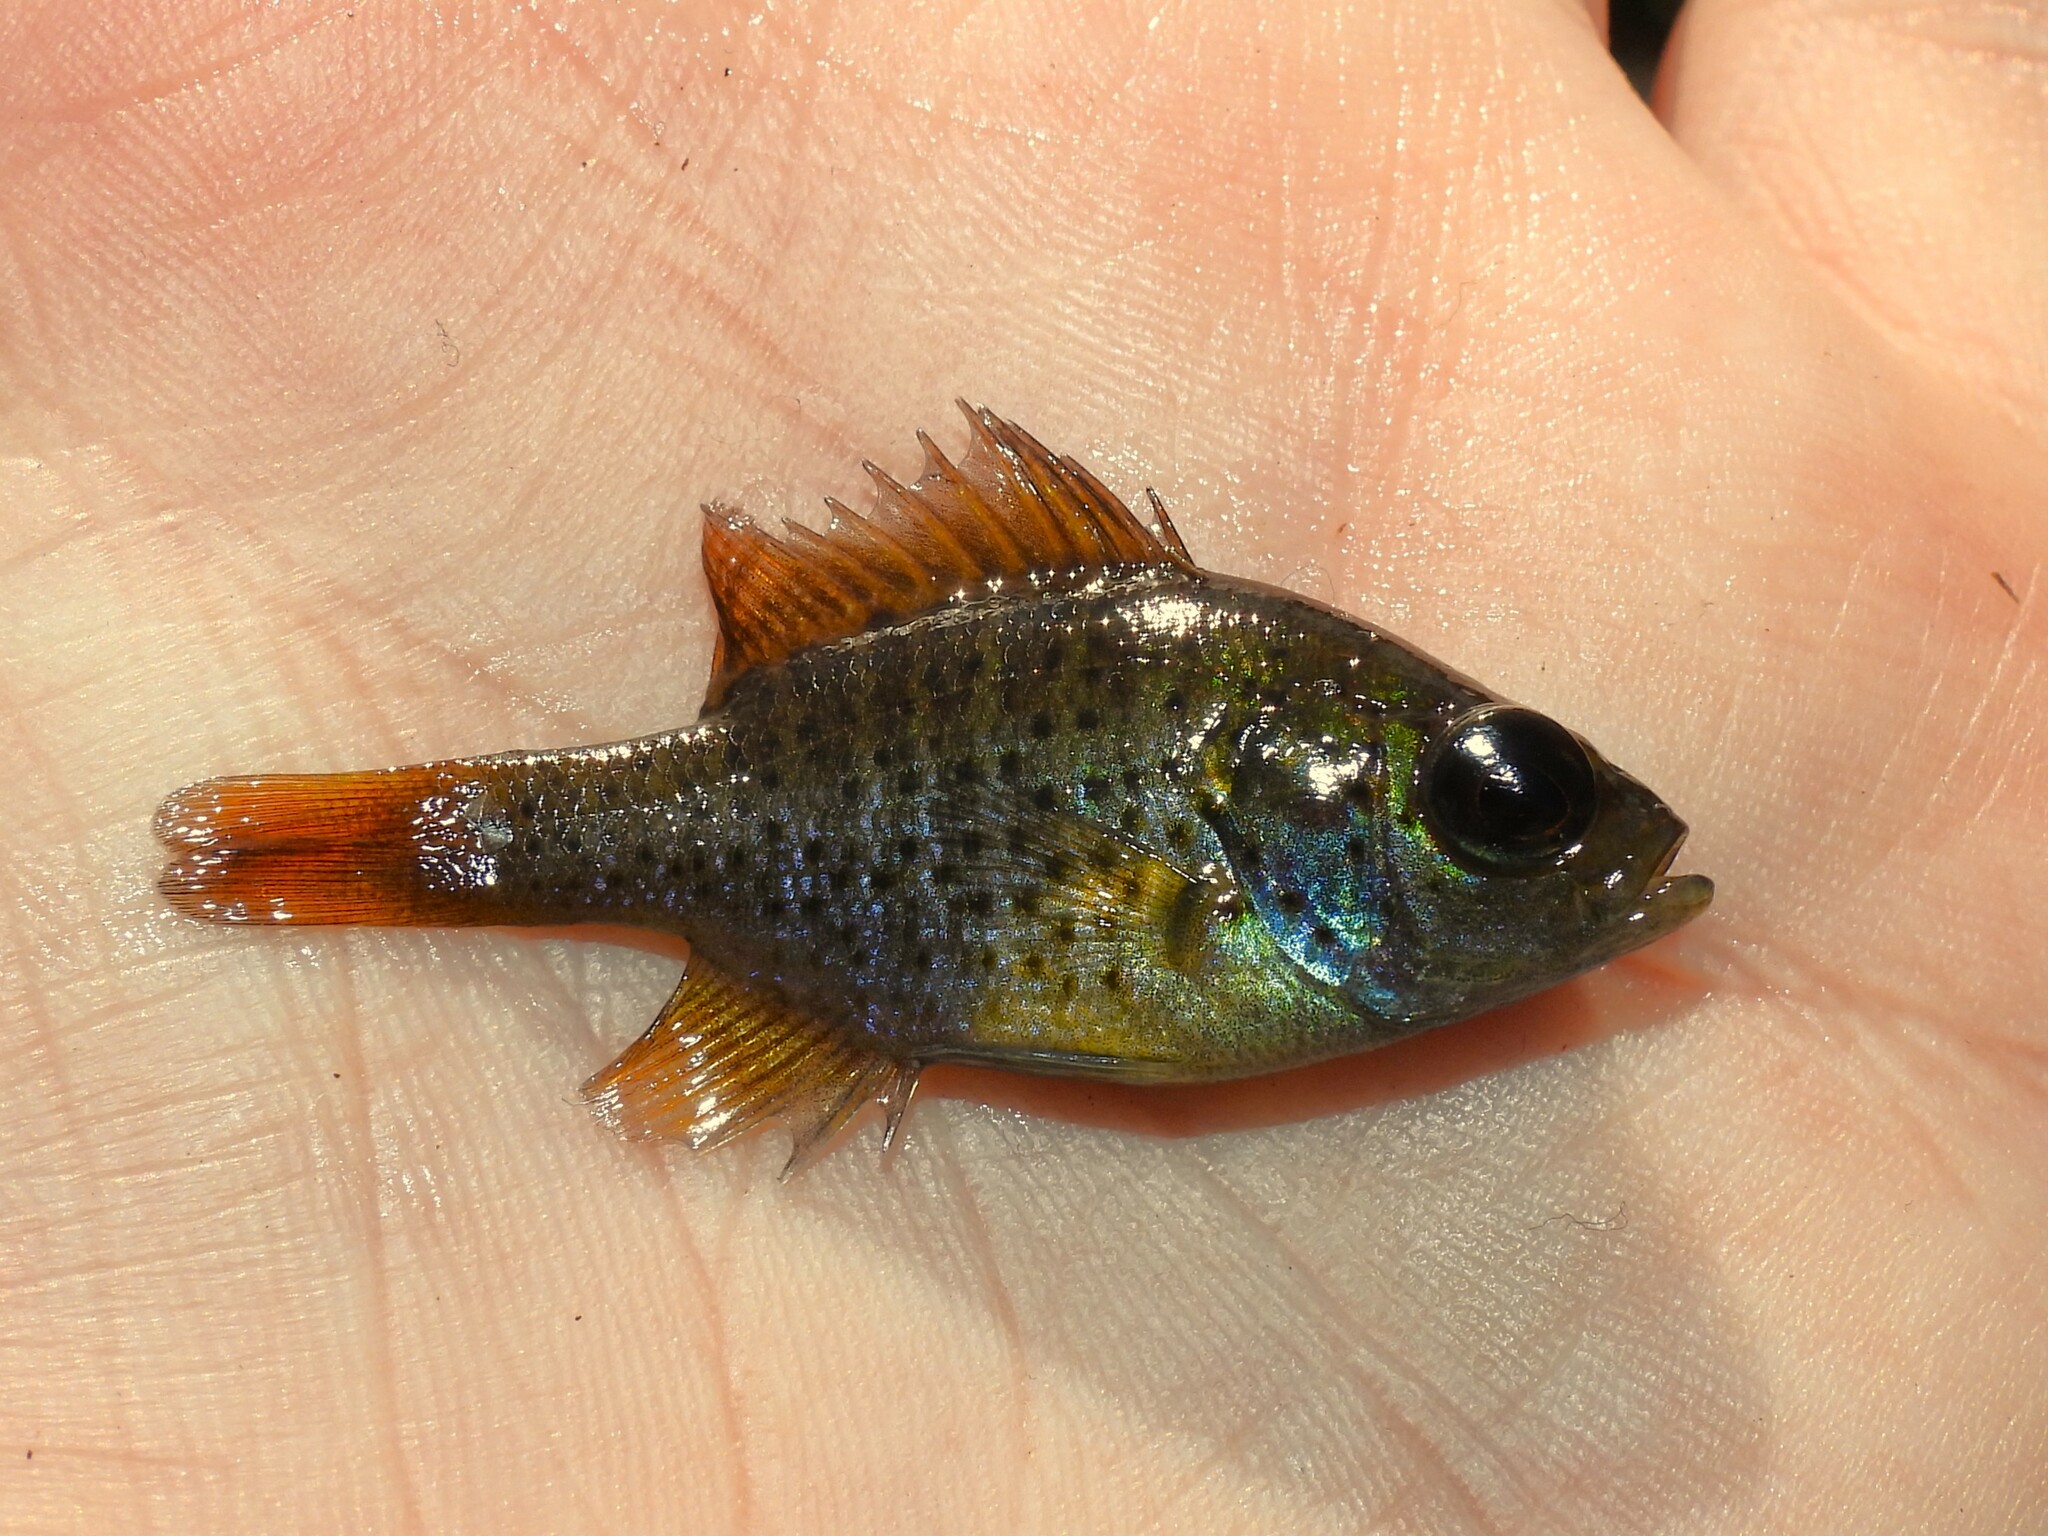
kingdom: Animalia
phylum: Chordata
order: Perciformes
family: Centrarchidae
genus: Lepomis
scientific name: Lepomis punctatus
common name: Spotted sunfish
